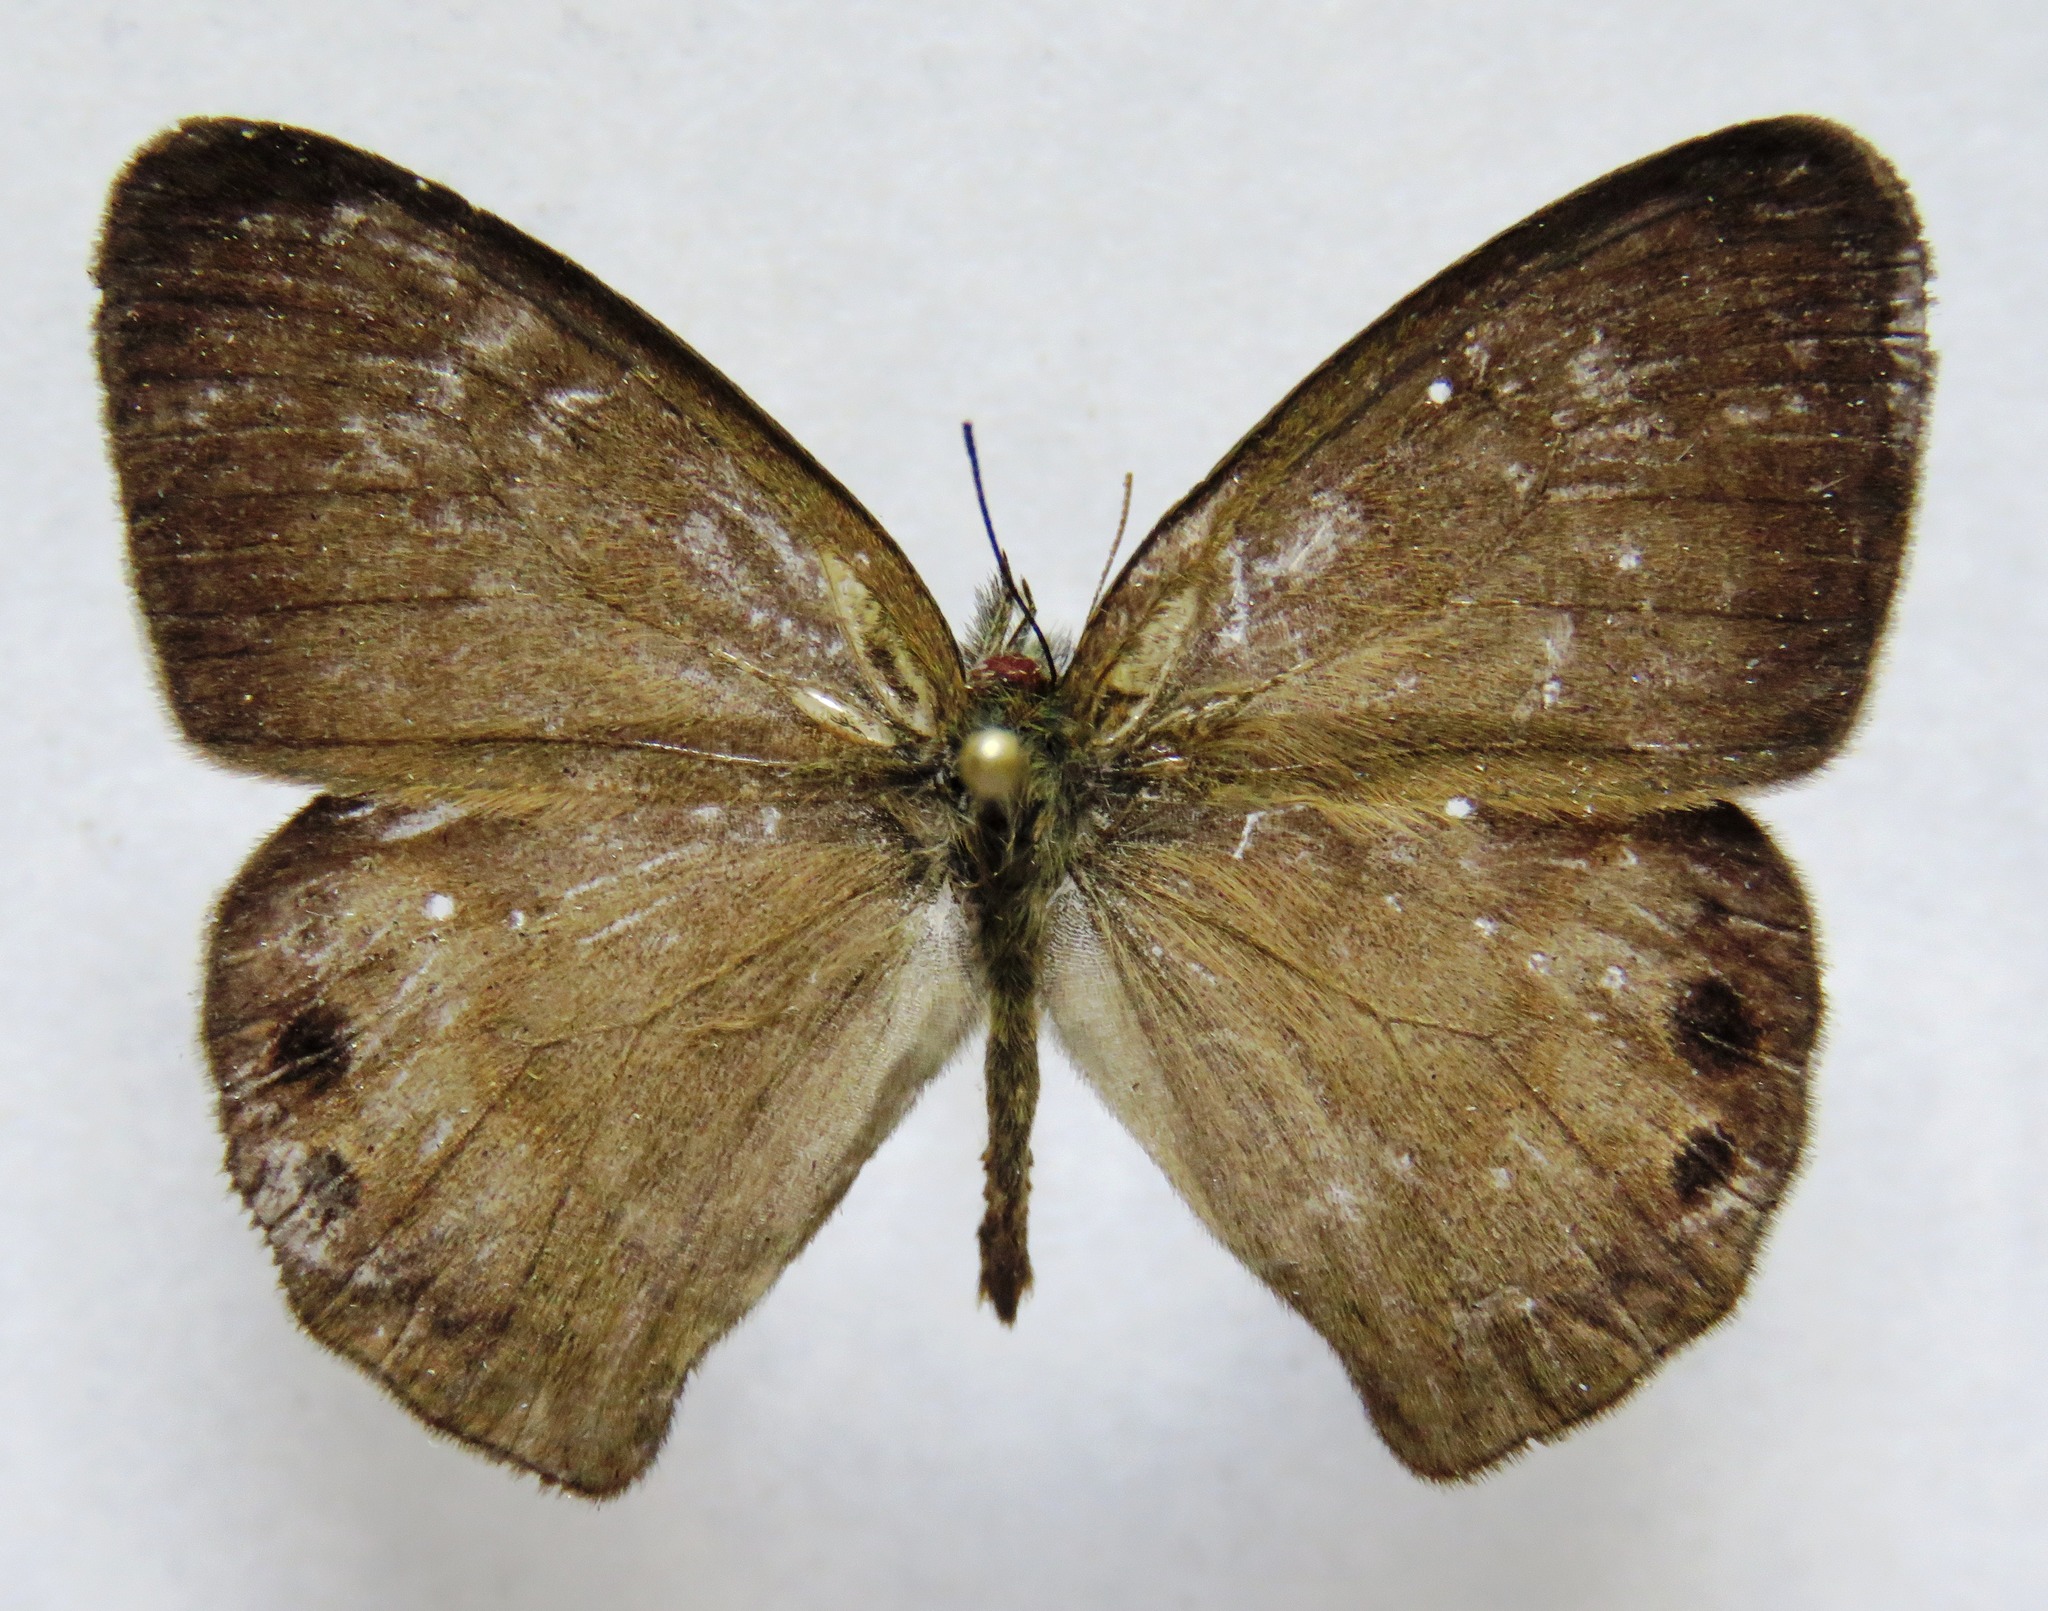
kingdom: Animalia
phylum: Arthropoda
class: Insecta
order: Lepidoptera
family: Nymphalidae
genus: Euptychia
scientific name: Euptychia
